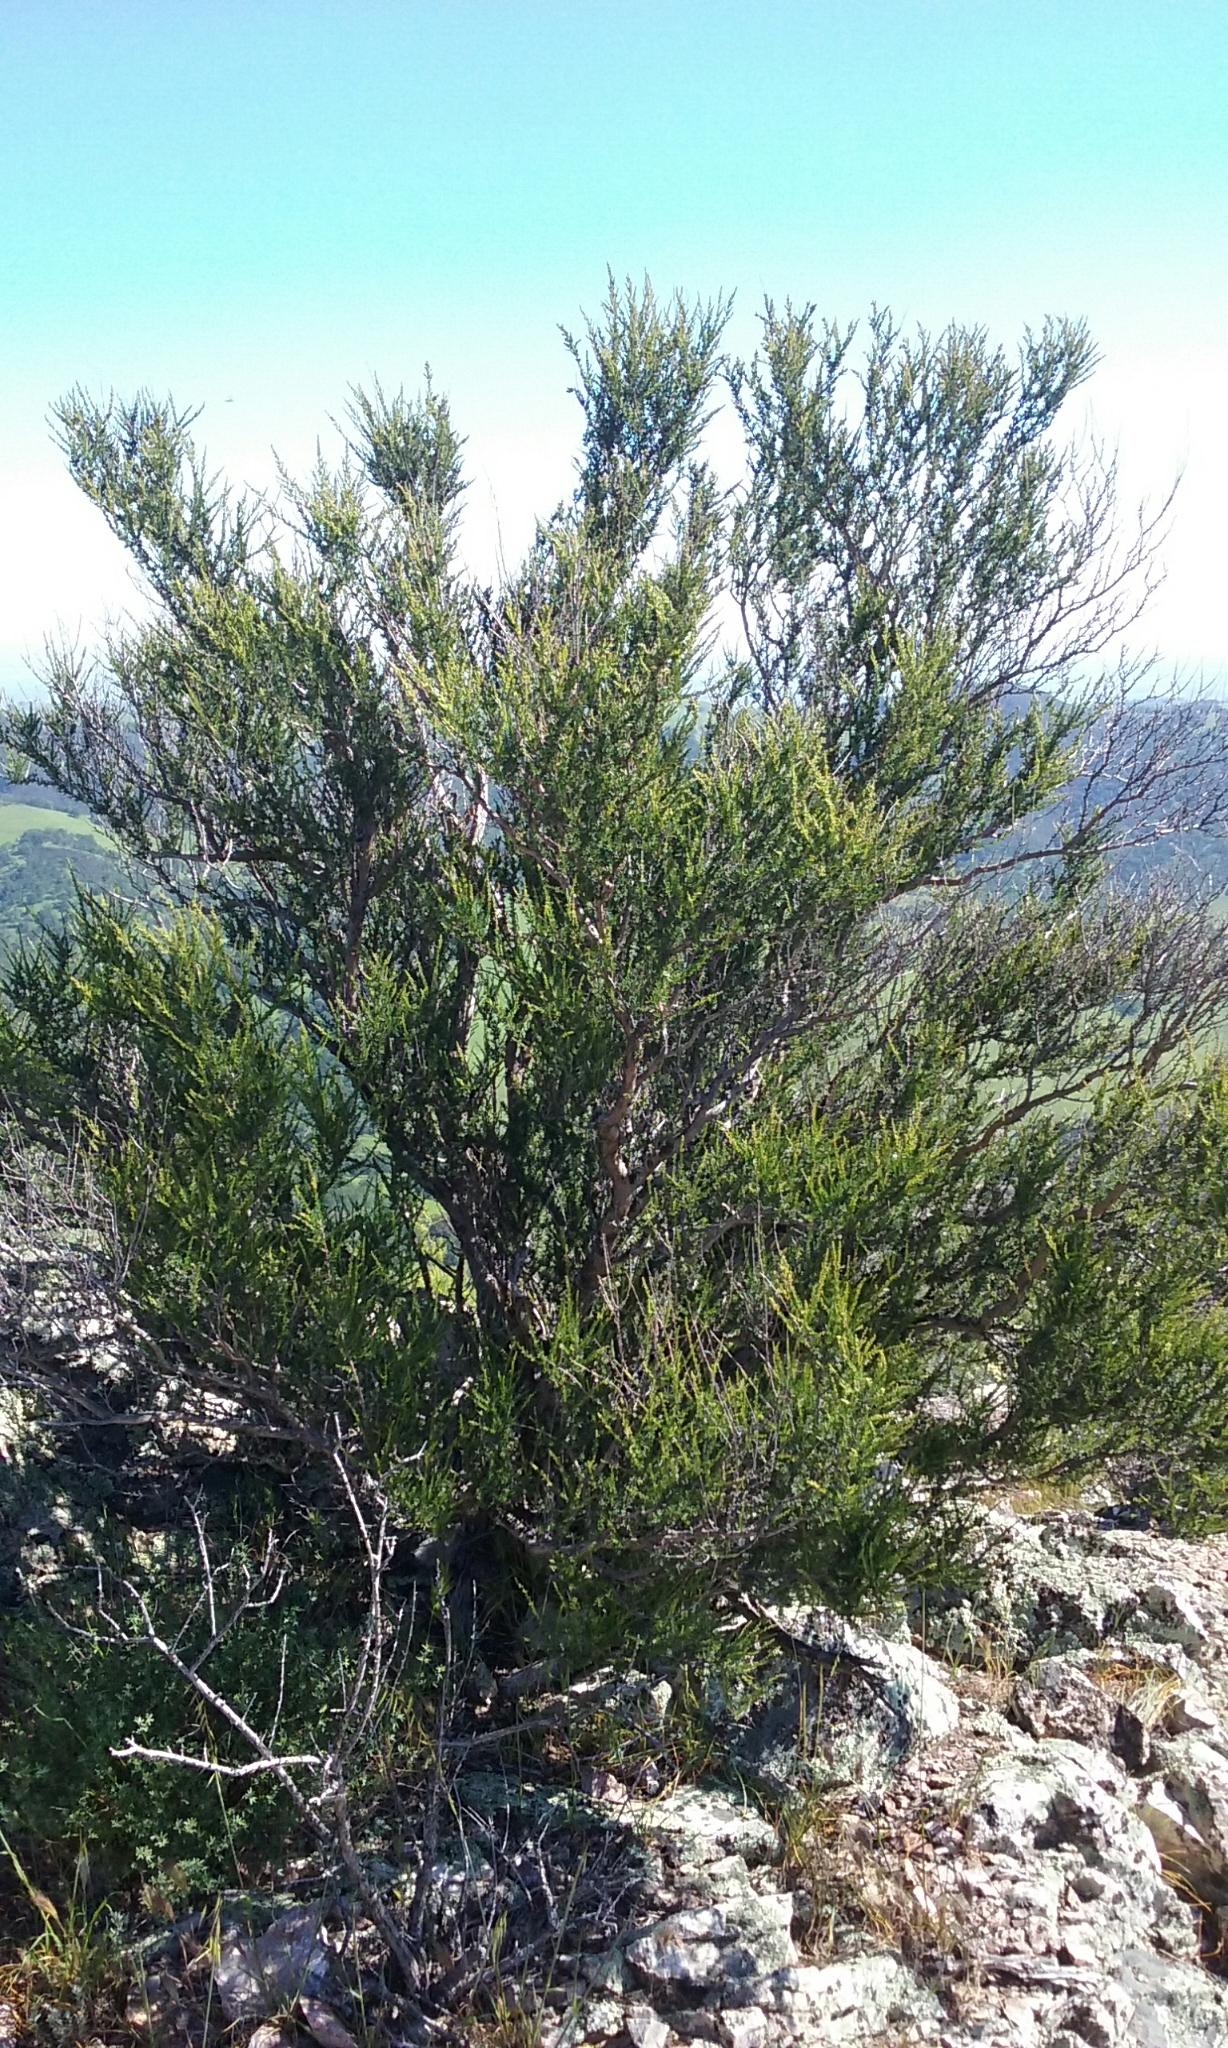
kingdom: Plantae
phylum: Tracheophyta
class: Magnoliopsida
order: Rosales
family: Rosaceae
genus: Adenostoma
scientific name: Adenostoma fasciculatum
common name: Chamise
